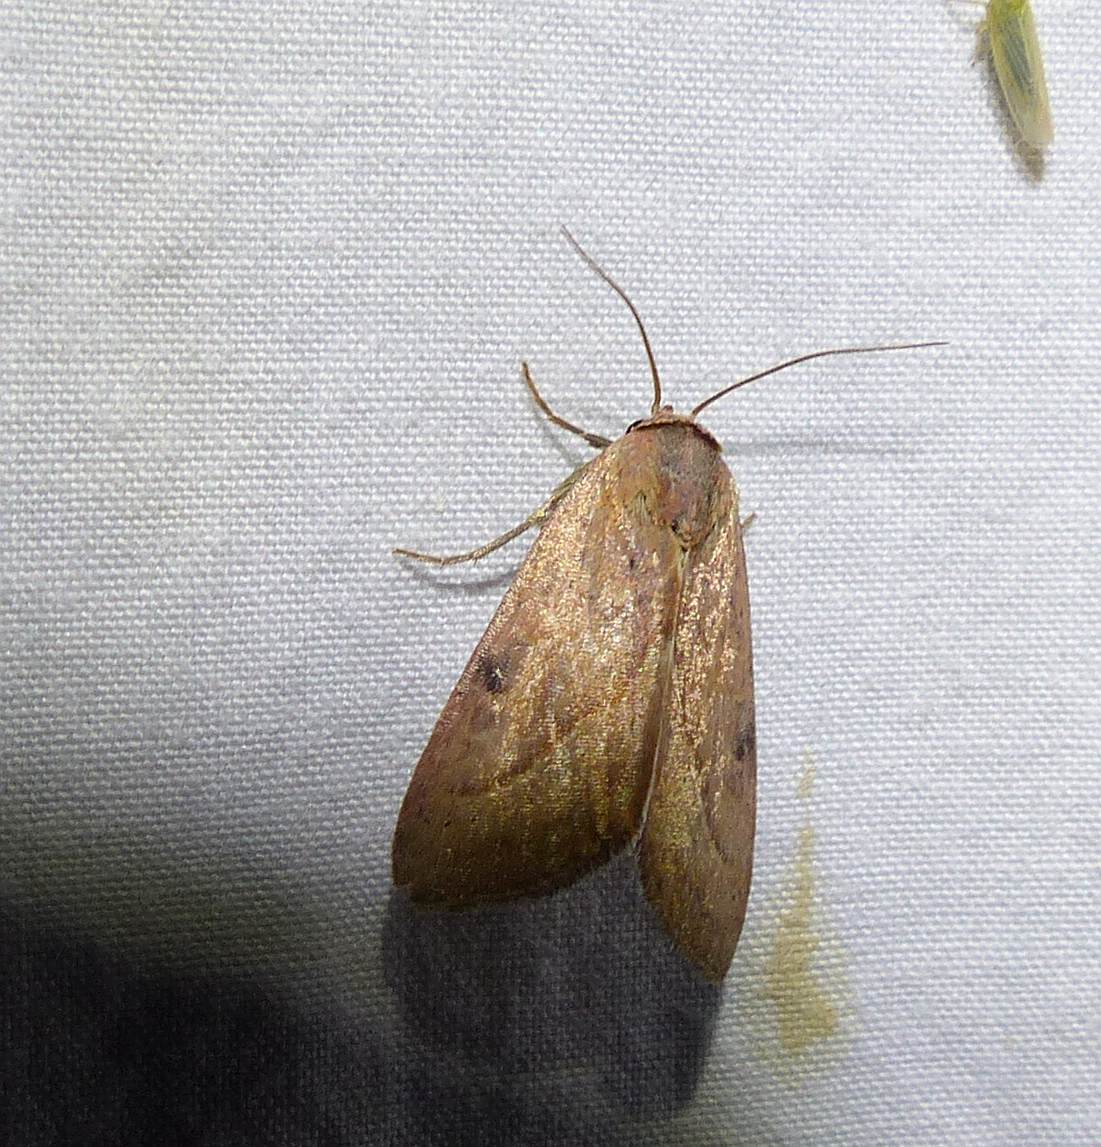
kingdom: Animalia
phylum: Arthropoda
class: Insecta
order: Lepidoptera
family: Noctuidae
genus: Galgula
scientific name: Galgula partita
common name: Wedgeling
